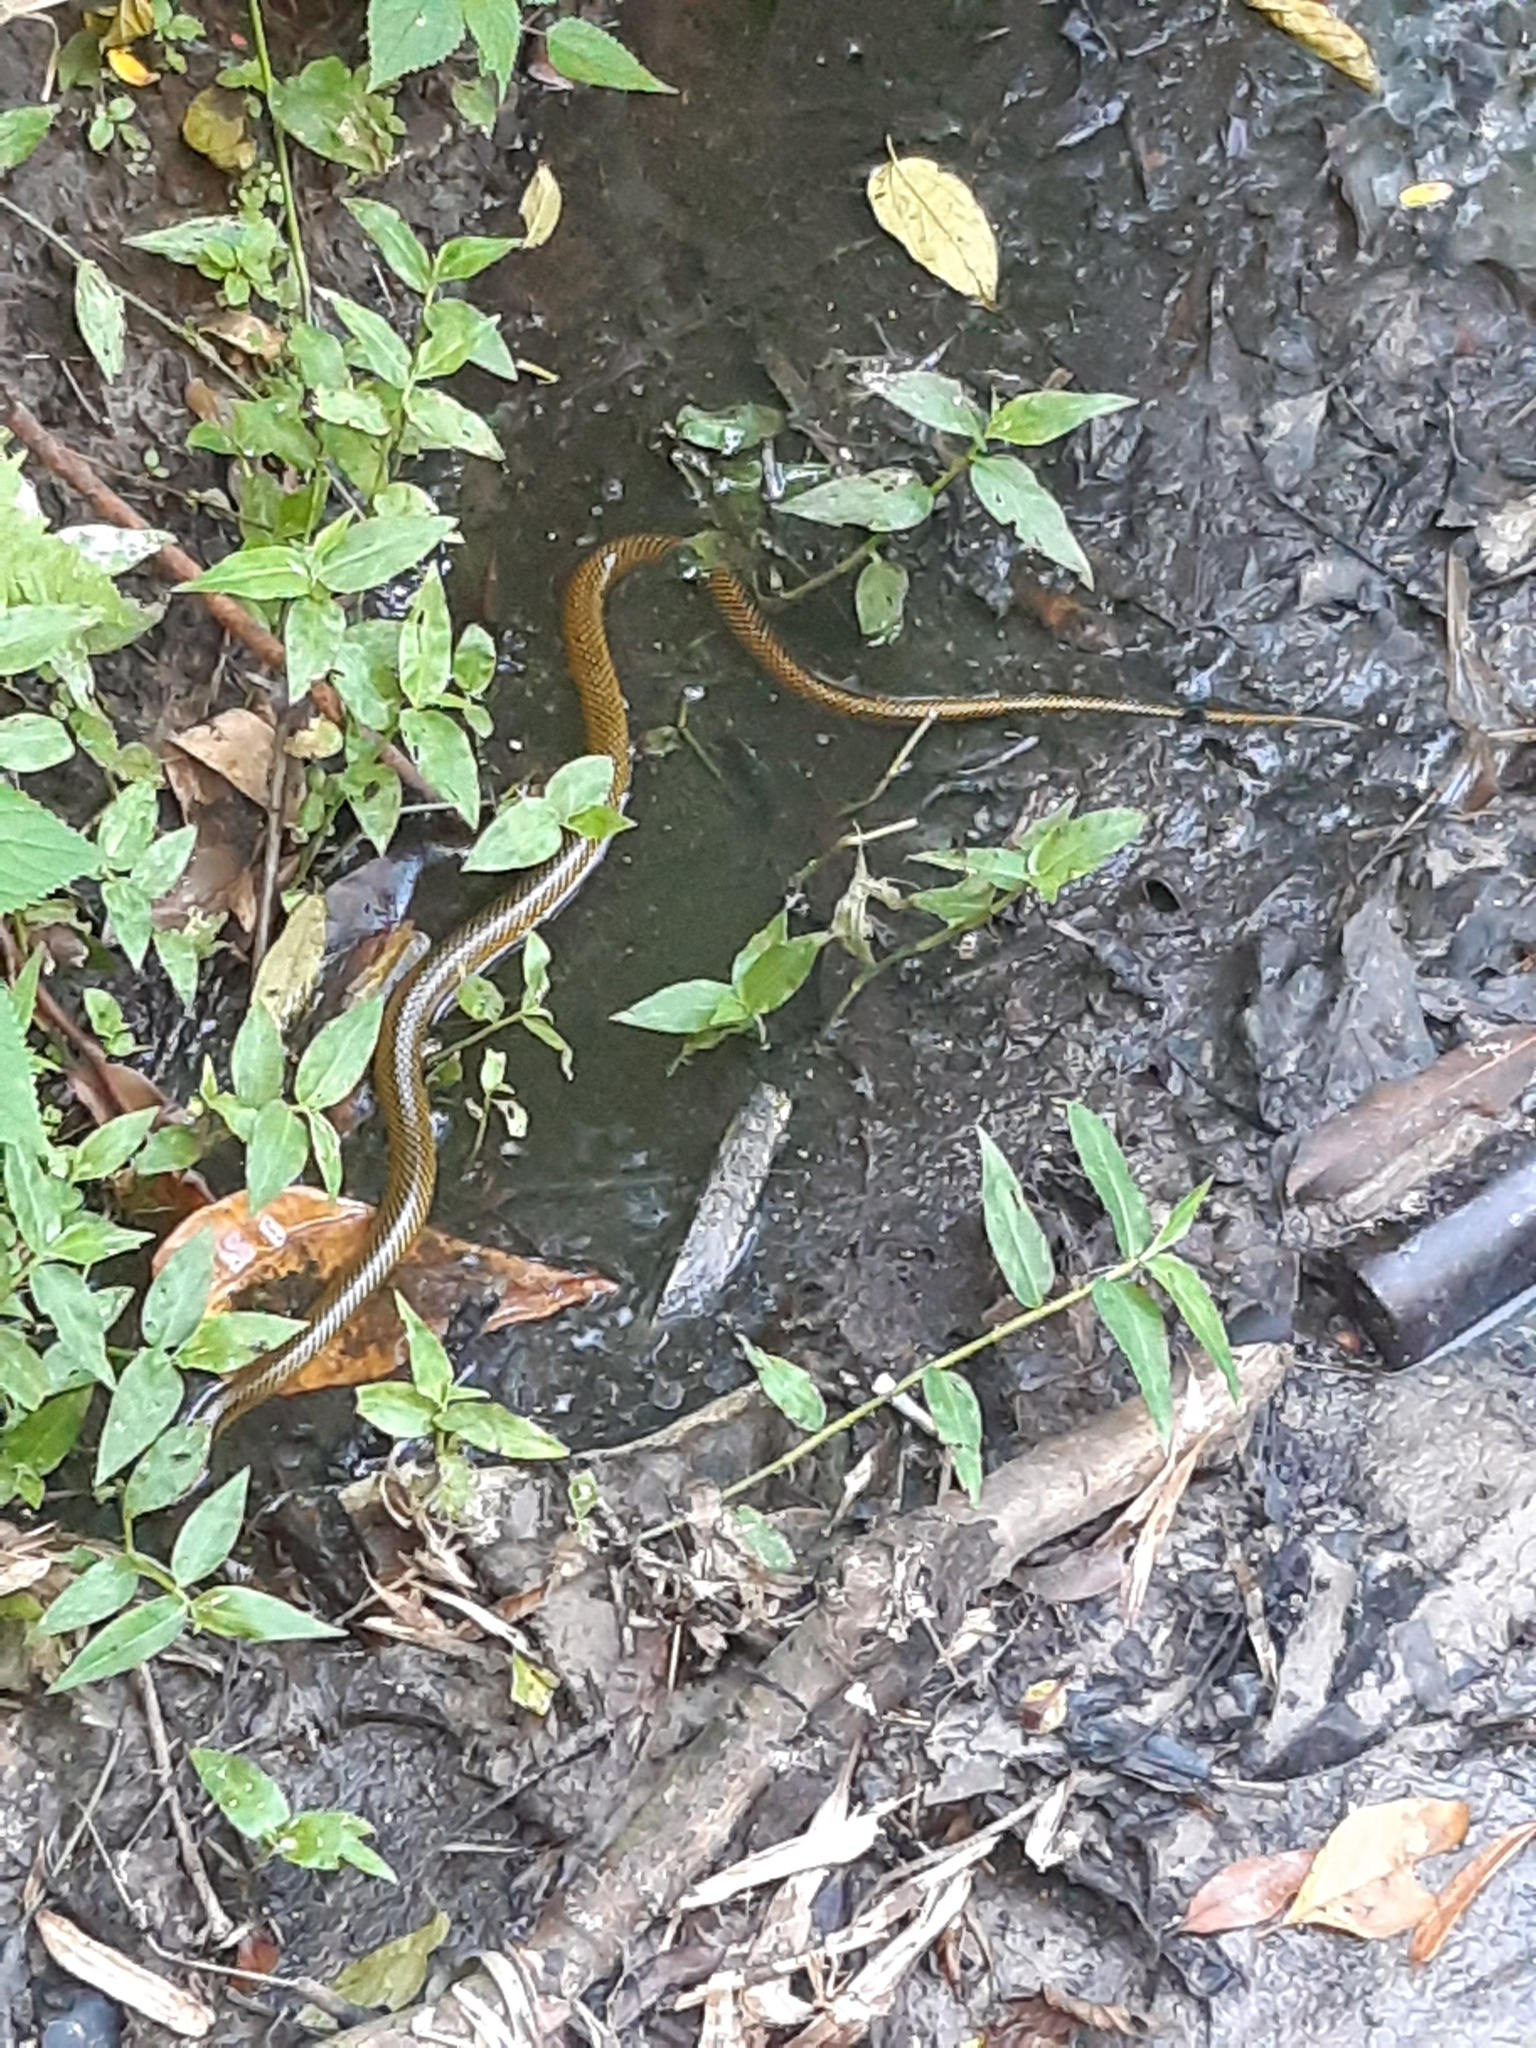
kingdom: Animalia
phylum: Chordata
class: Squamata
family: Colubridae
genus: Erythrolamprus
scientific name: Erythrolamprus miliaris
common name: Military ground snake
